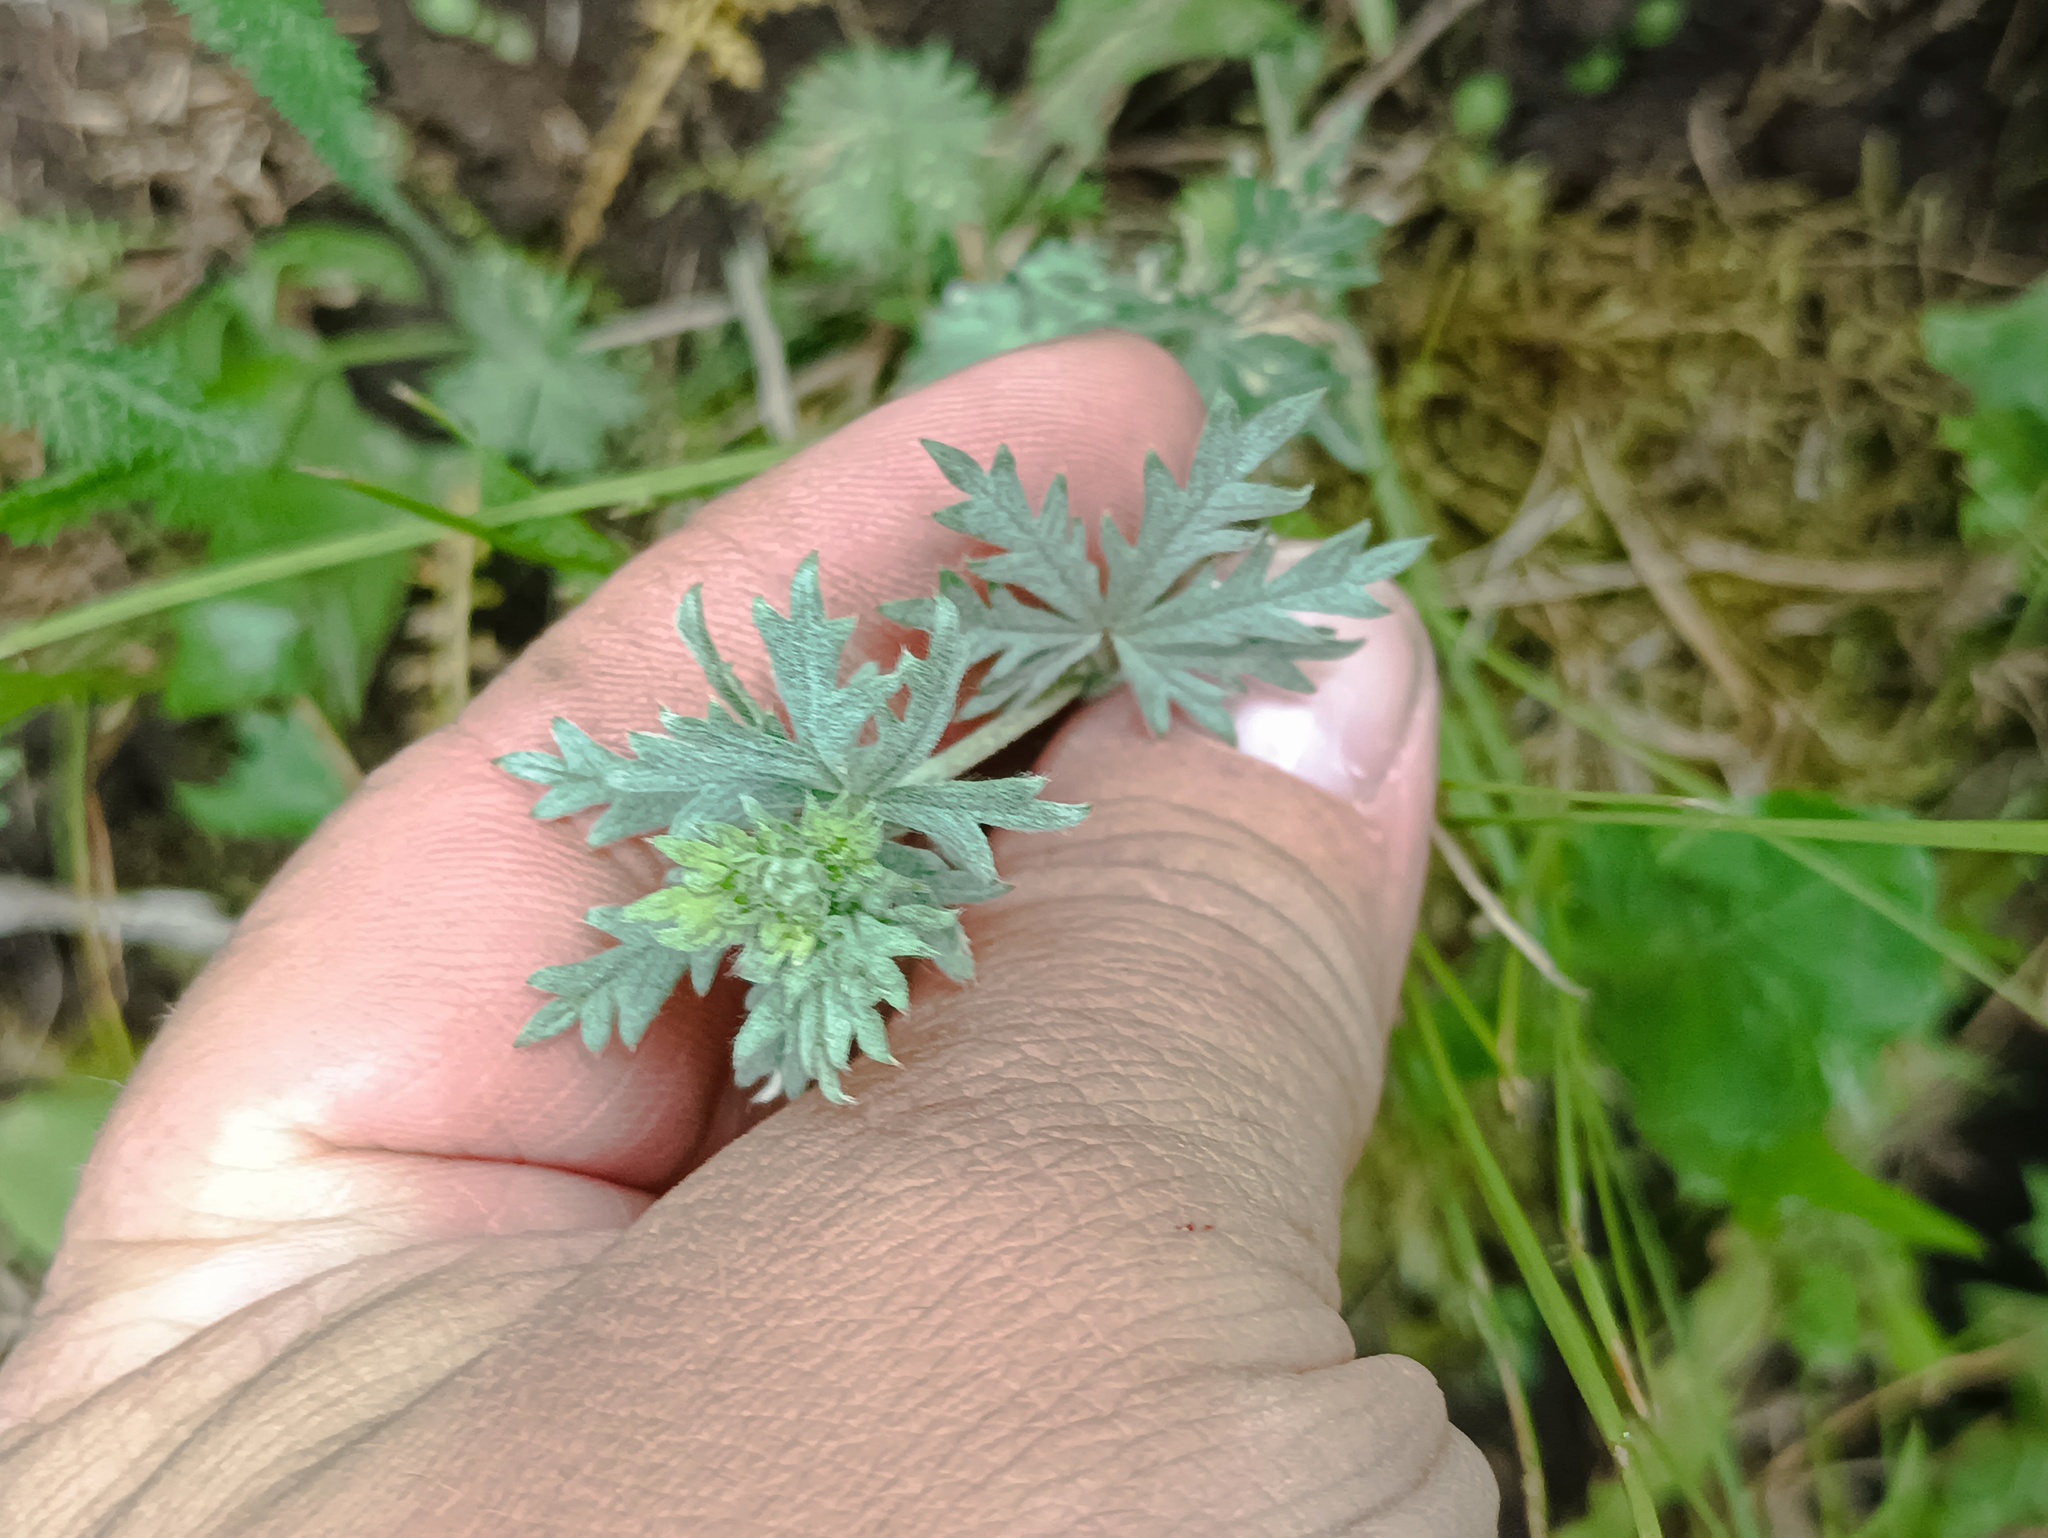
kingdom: Plantae
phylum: Tracheophyta
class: Magnoliopsida
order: Rosales
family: Rosaceae
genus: Potentilla
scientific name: Potentilla argentea
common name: Hoary cinquefoil
